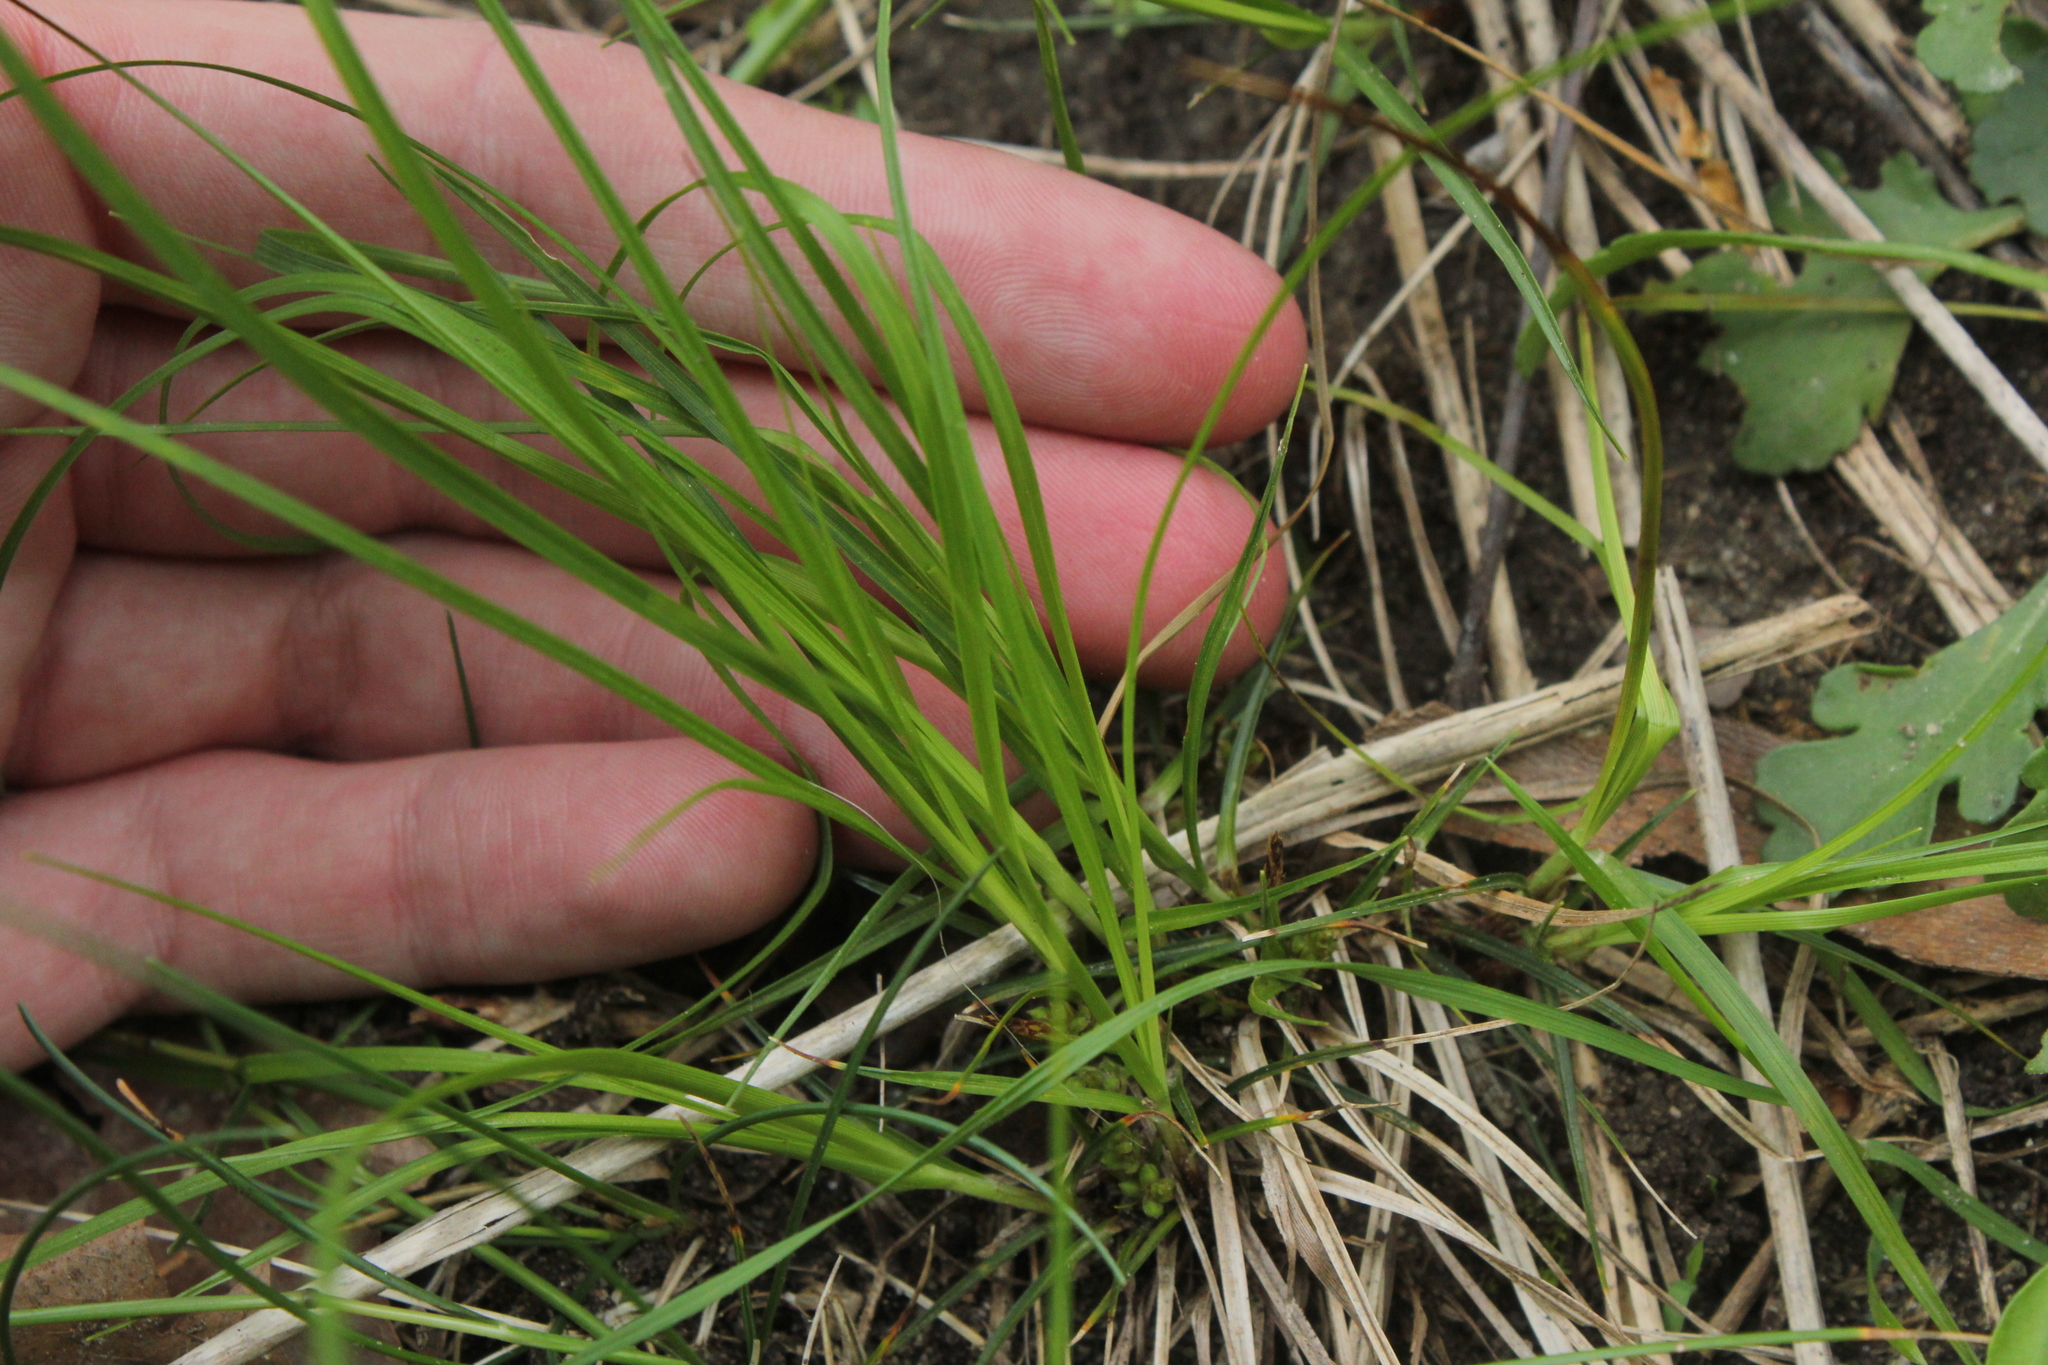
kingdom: Plantae
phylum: Tracheophyta
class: Liliopsida
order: Poales
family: Cyperaceae
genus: Carex
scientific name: Carex umbellata
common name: Early oak sedge
